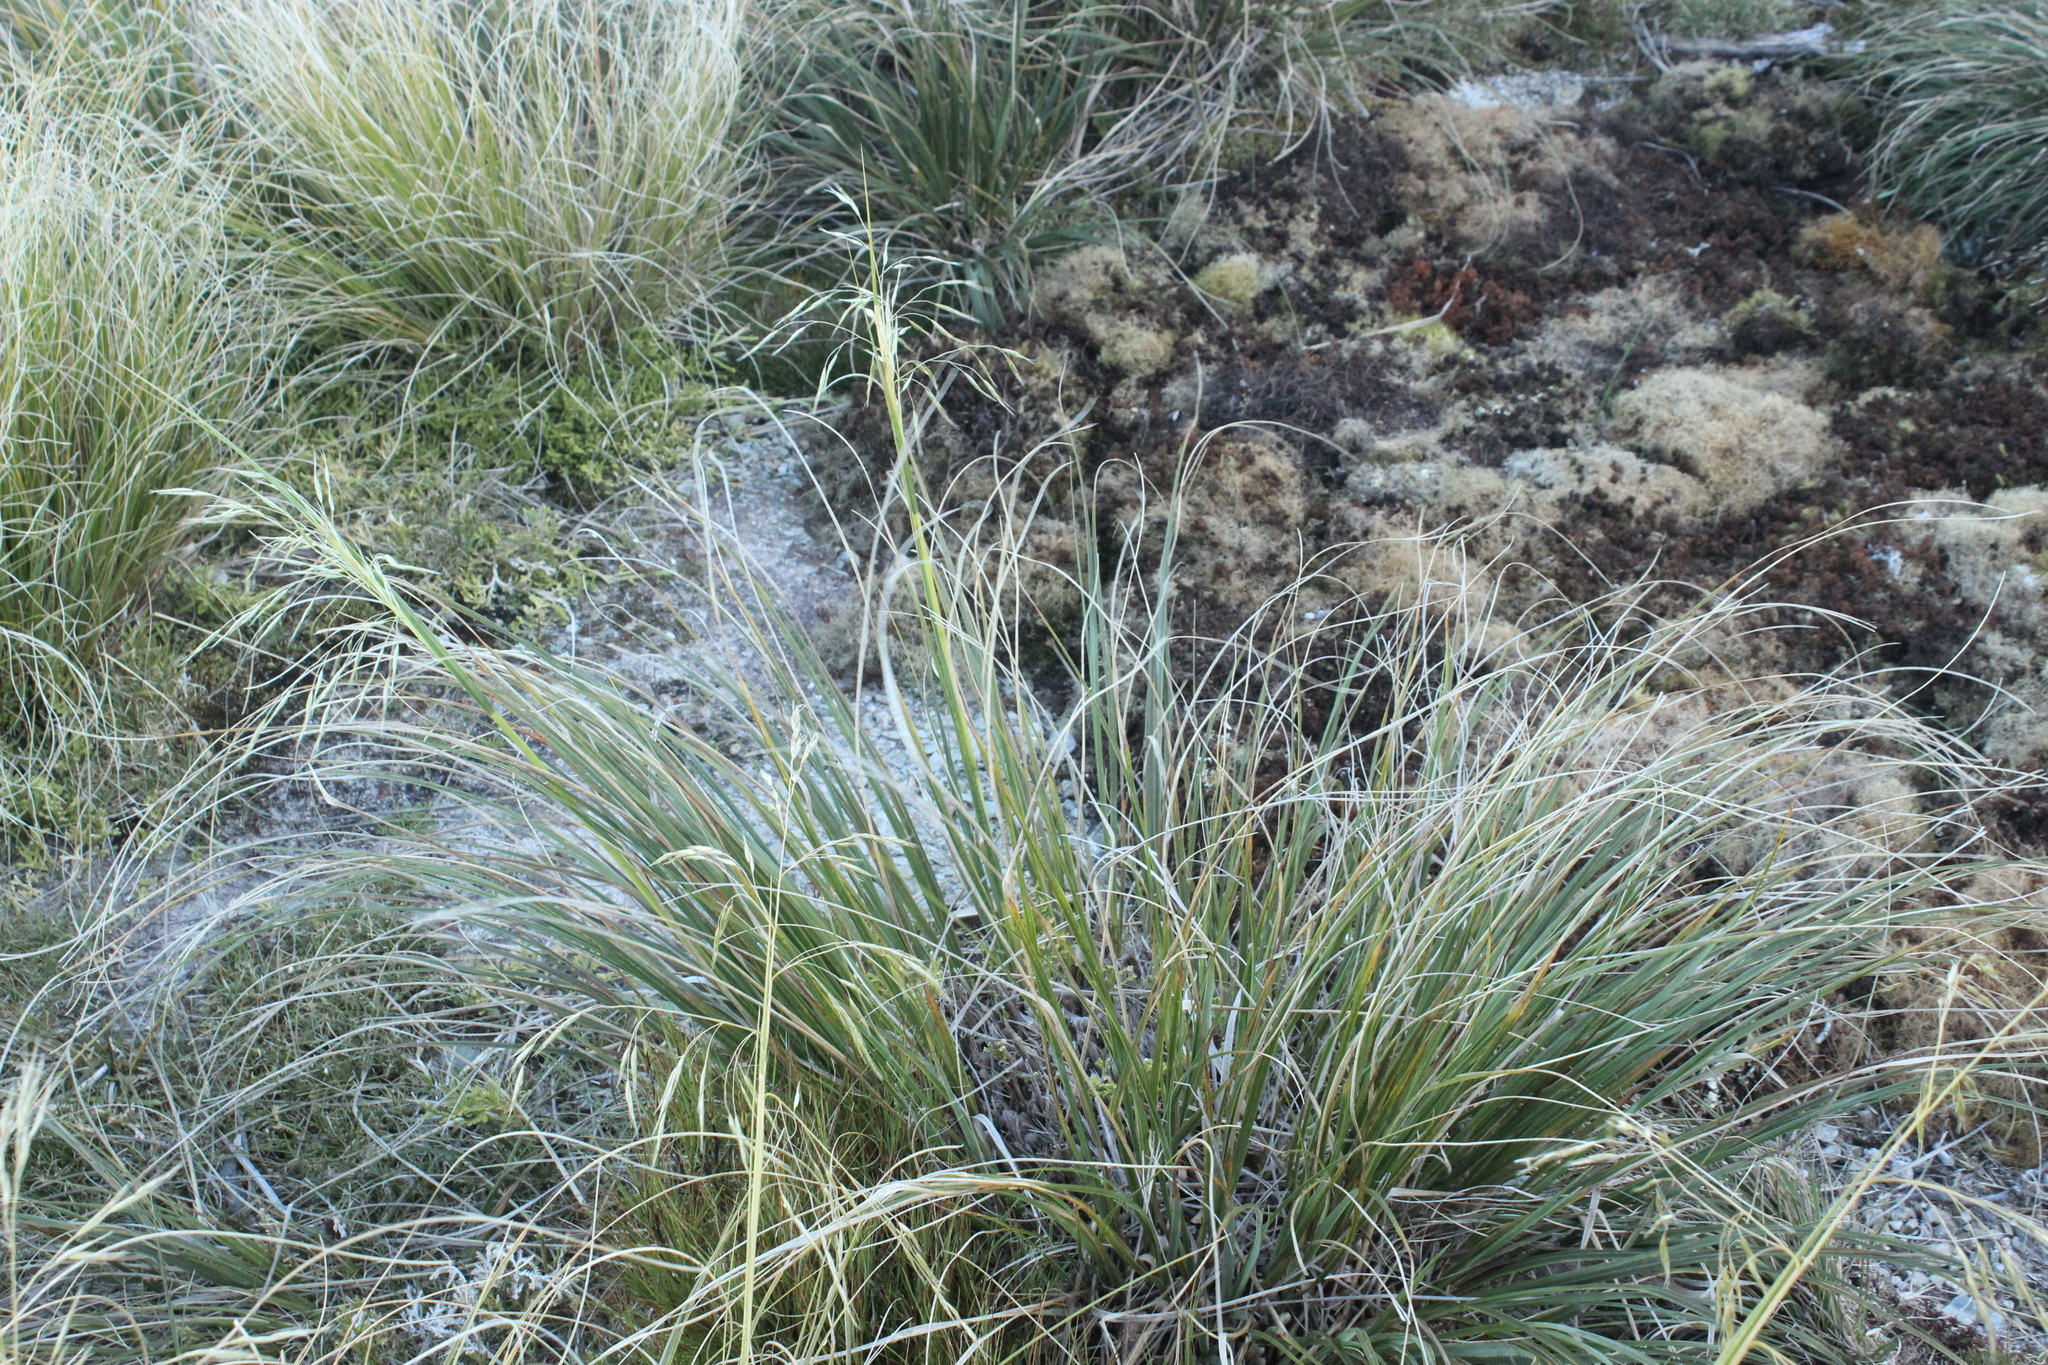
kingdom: Plantae
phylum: Tracheophyta
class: Liliopsida
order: Poales
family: Poaceae
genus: Chionochloa
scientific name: Chionochloa flavescens
